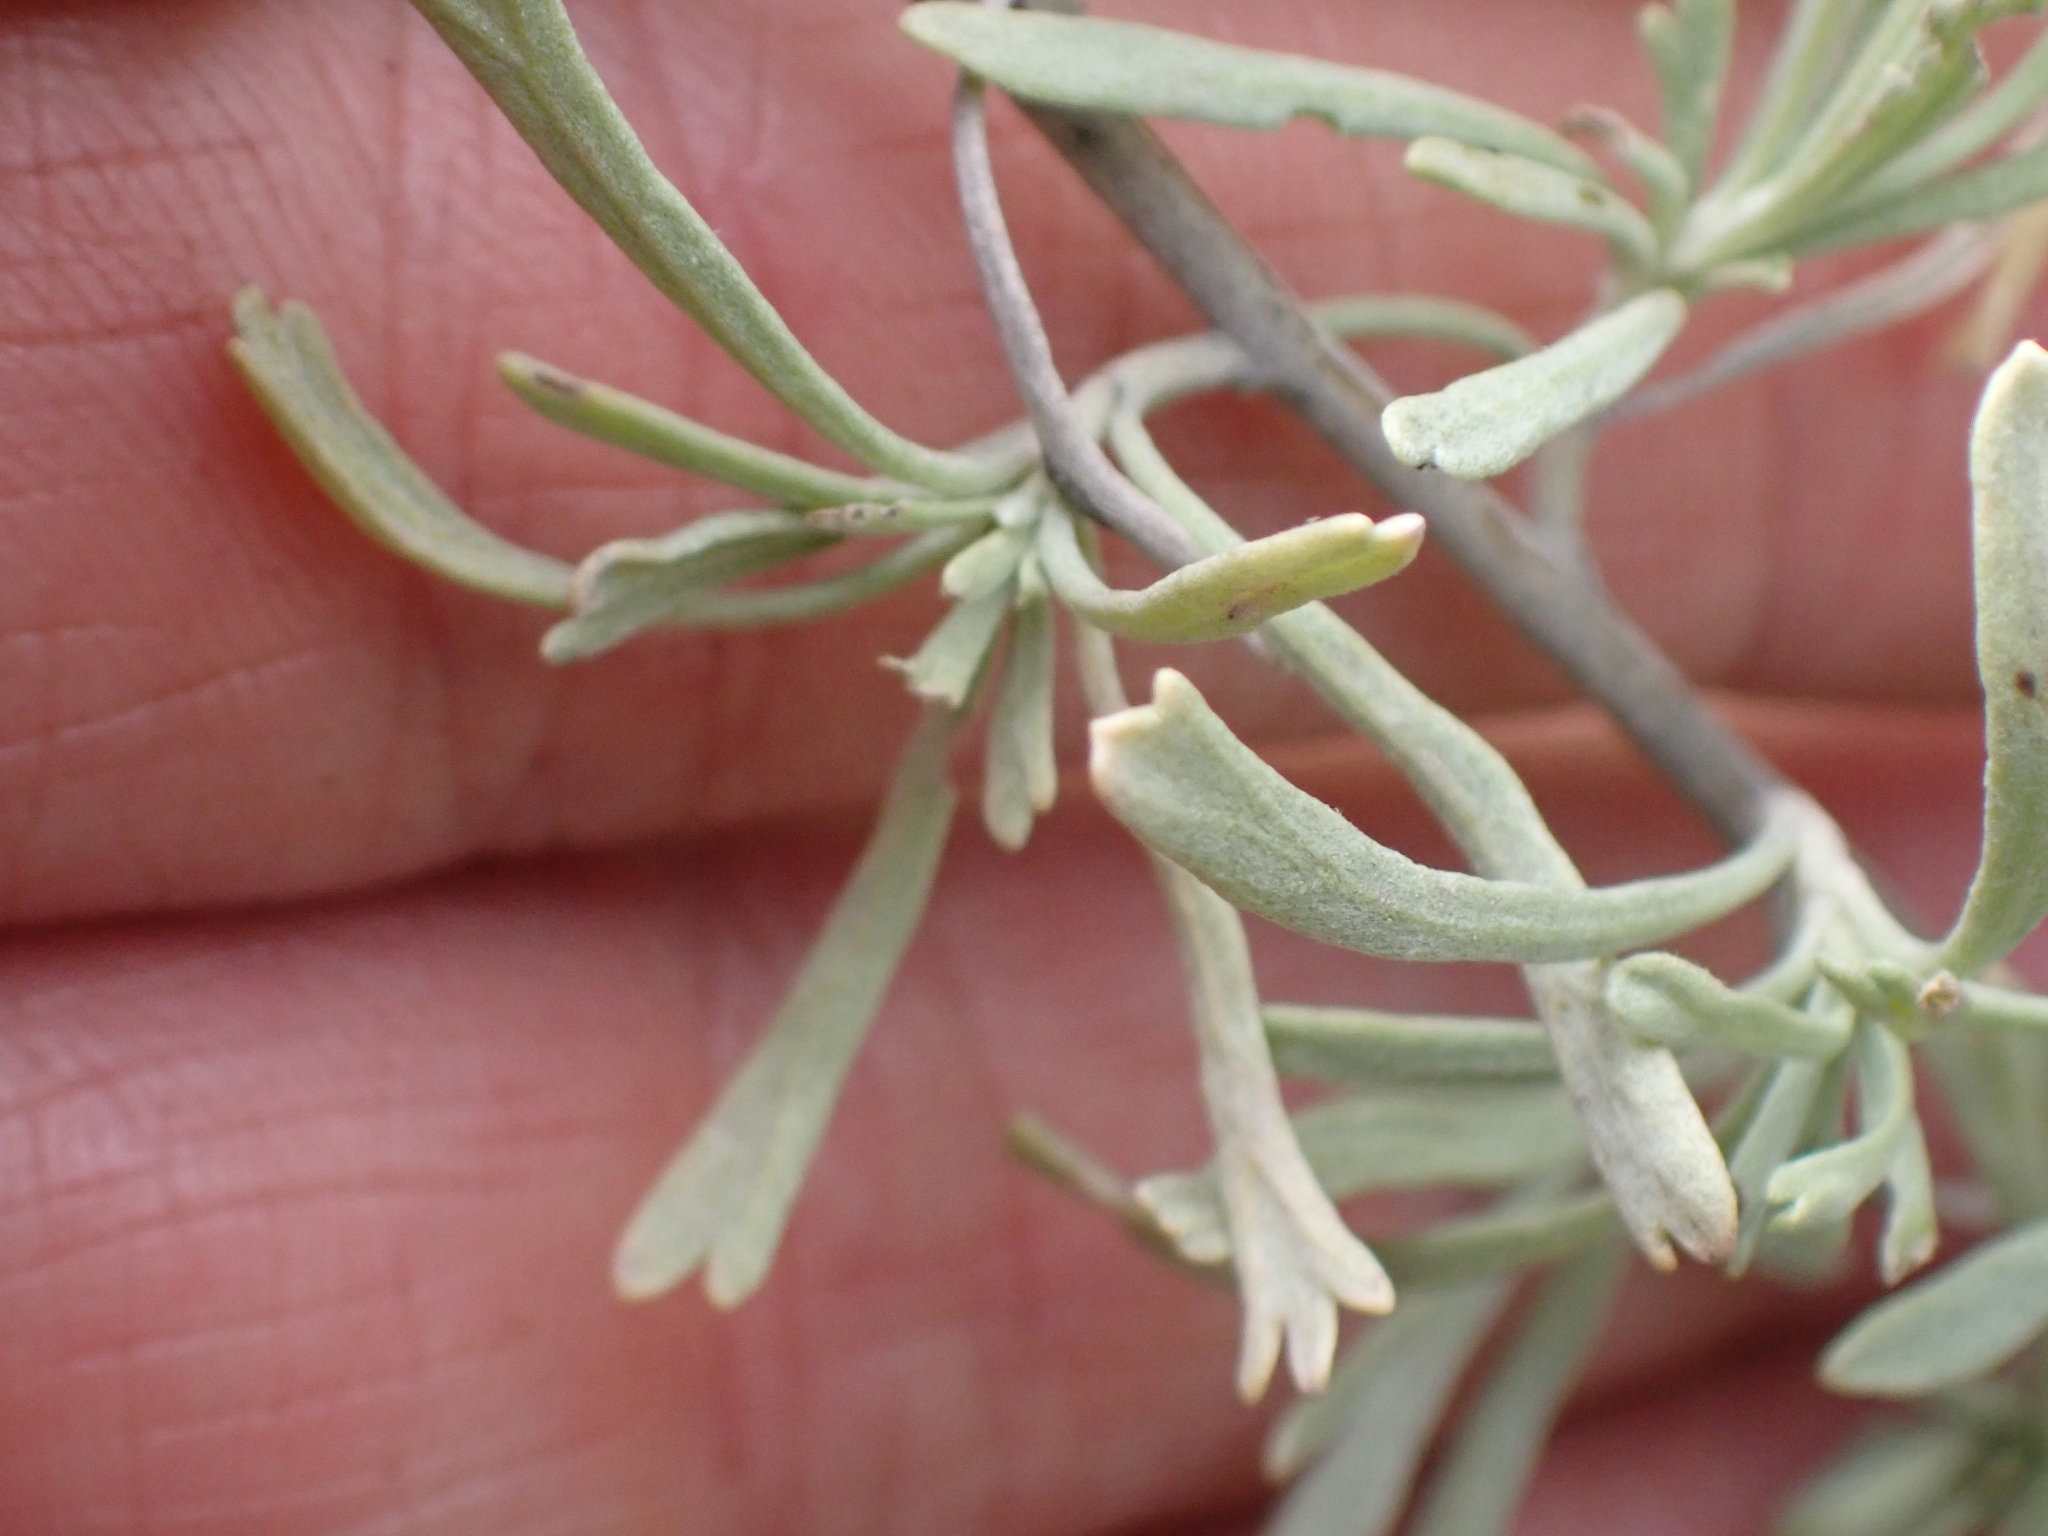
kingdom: Plantae
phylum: Tracheophyta
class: Magnoliopsida
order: Asterales
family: Asteraceae
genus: Artemisia
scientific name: Artemisia tridentata
